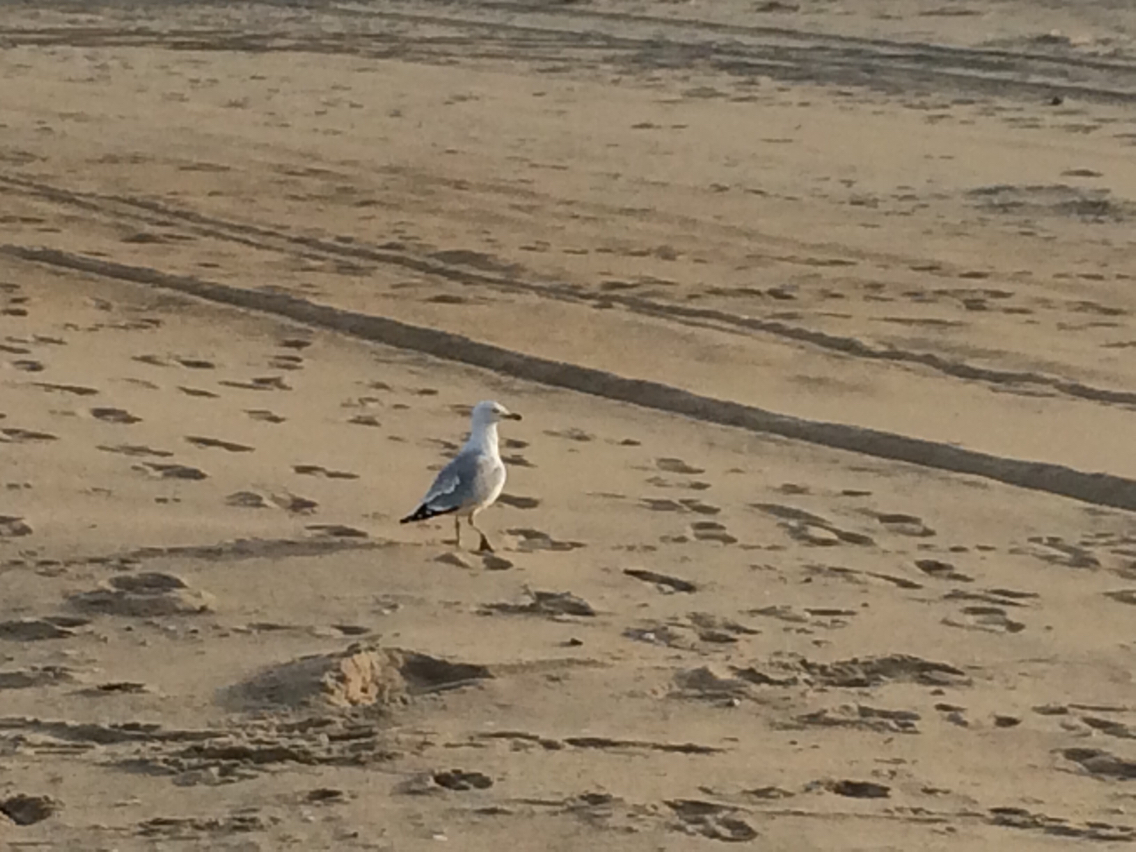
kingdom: Animalia
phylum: Chordata
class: Aves
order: Charadriiformes
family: Laridae
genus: Larus
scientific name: Larus delawarensis
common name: Ring-billed gull
